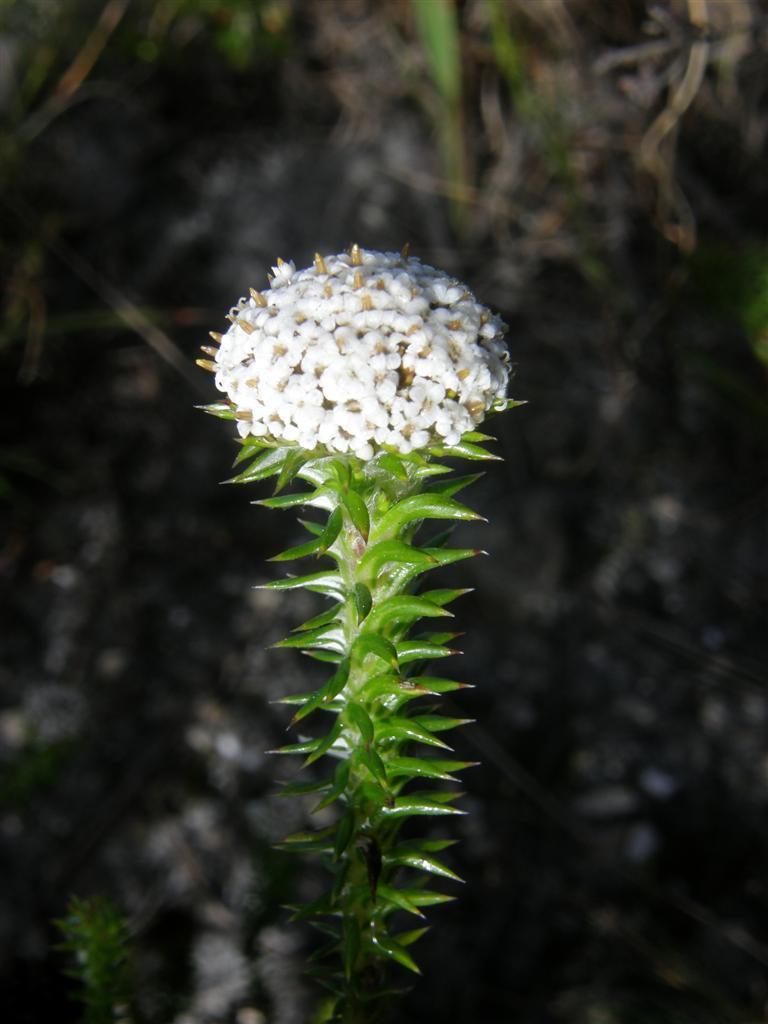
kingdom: Plantae
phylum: Tracheophyta
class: Magnoliopsida
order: Asterales
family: Asteraceae
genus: Stoebe
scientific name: Stoebe aethiopica
